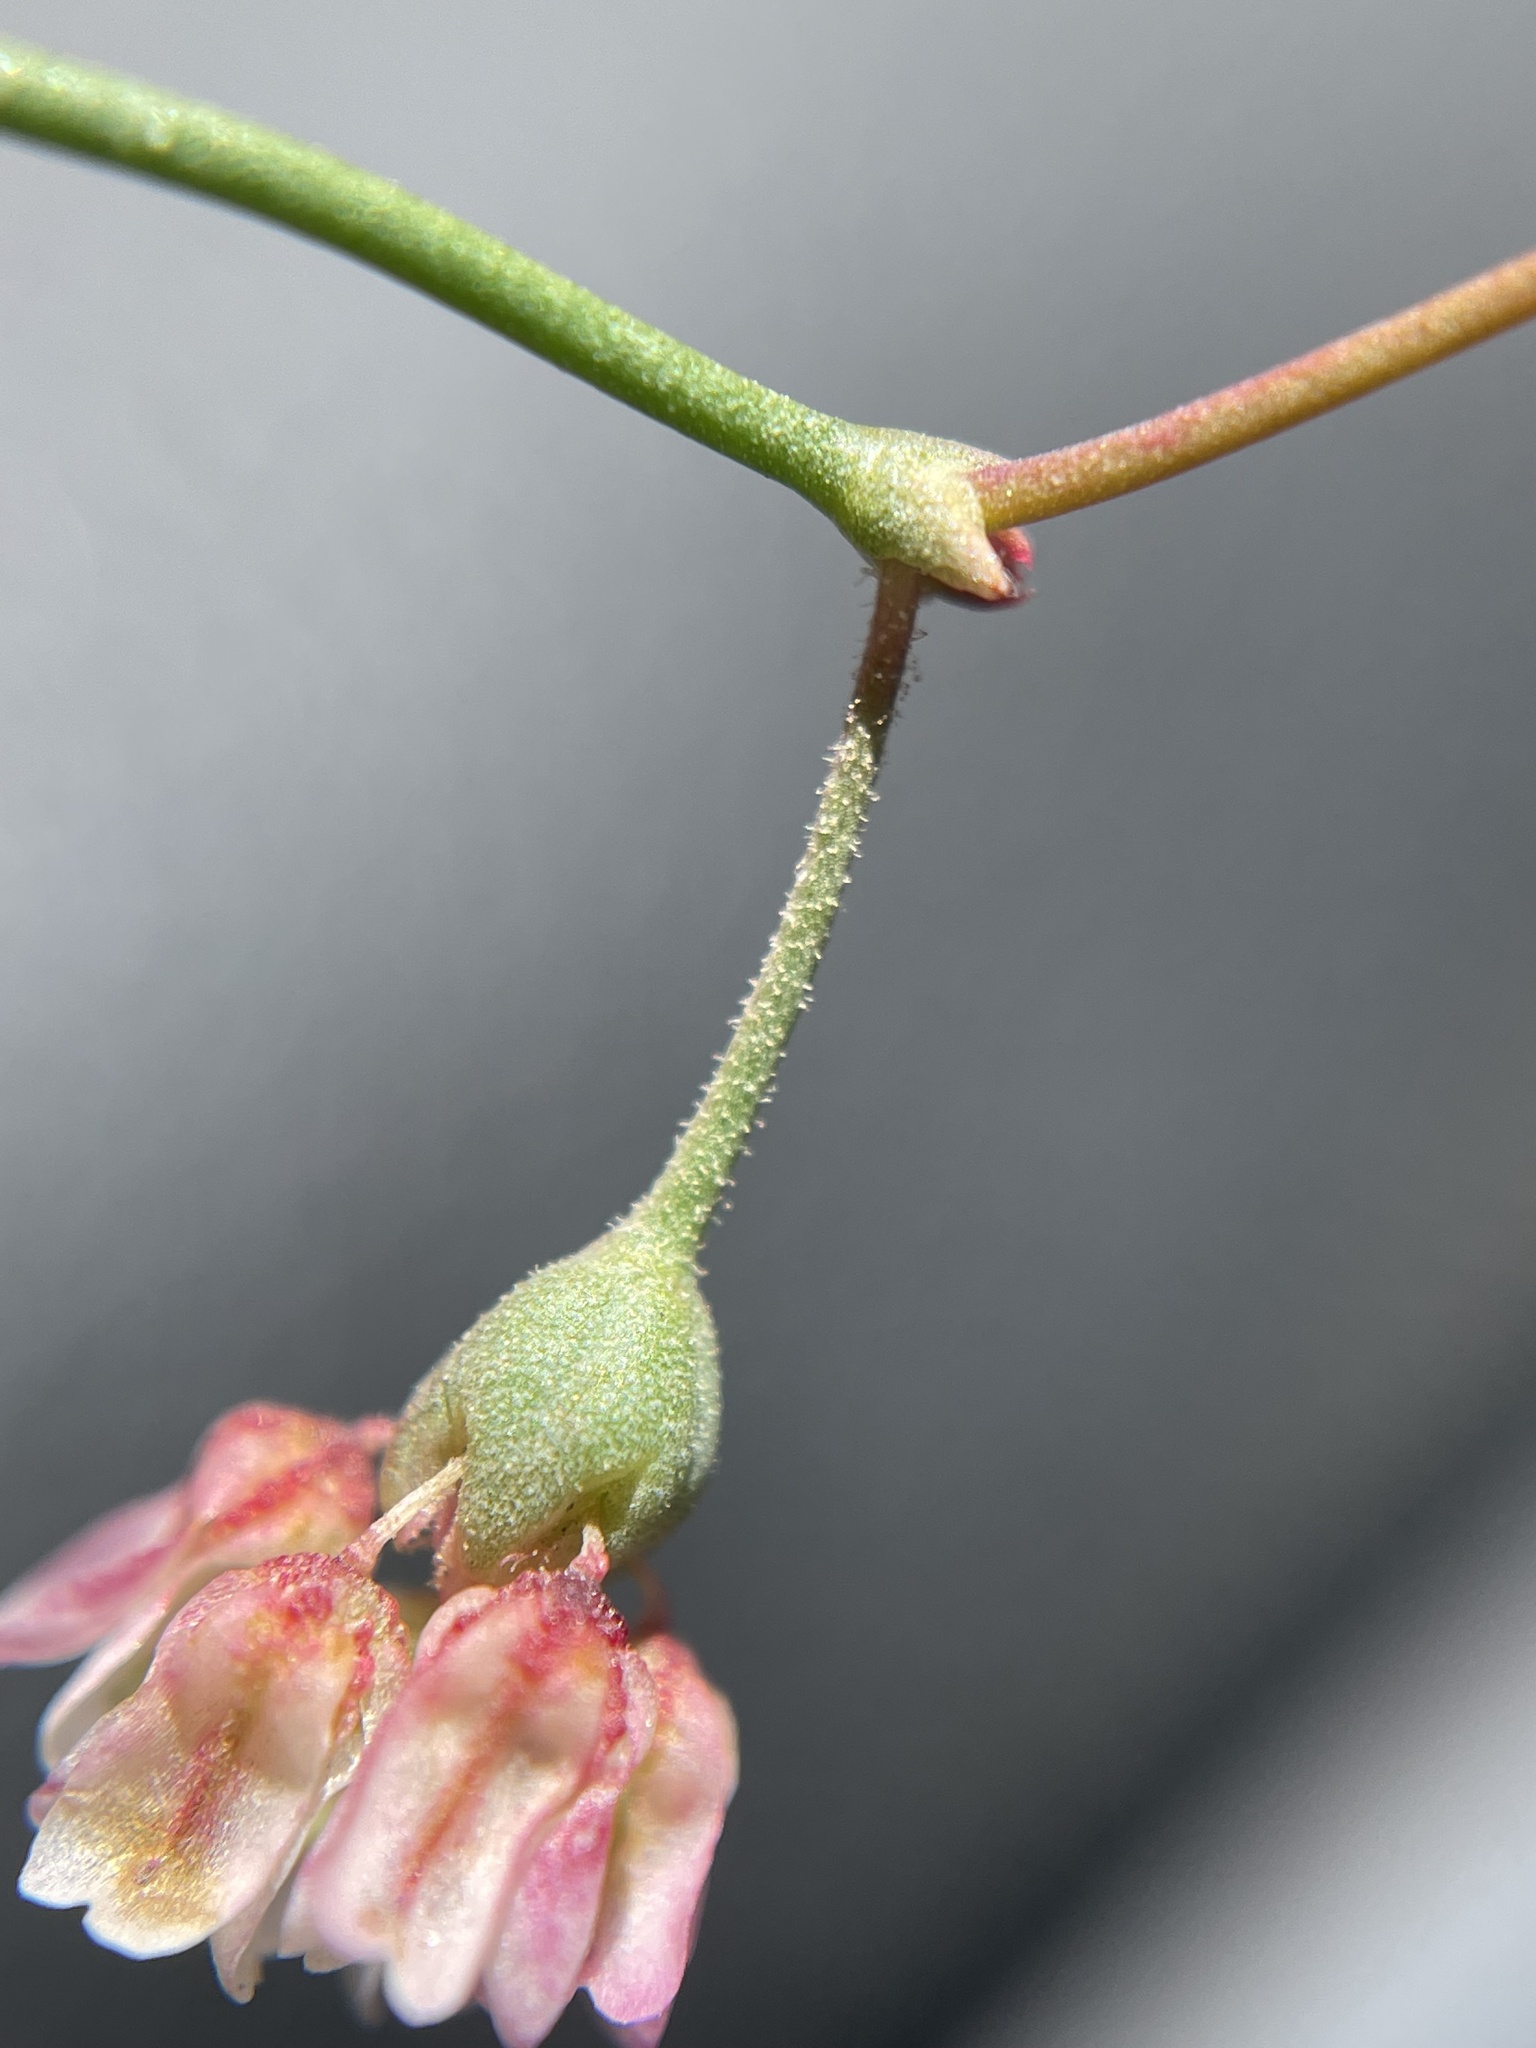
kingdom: Plantae
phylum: Tracheophyta
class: Magnoliopsida
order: Caryophyllales
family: Polygonaceae
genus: Eriogonum
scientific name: Eriogonum nutans
